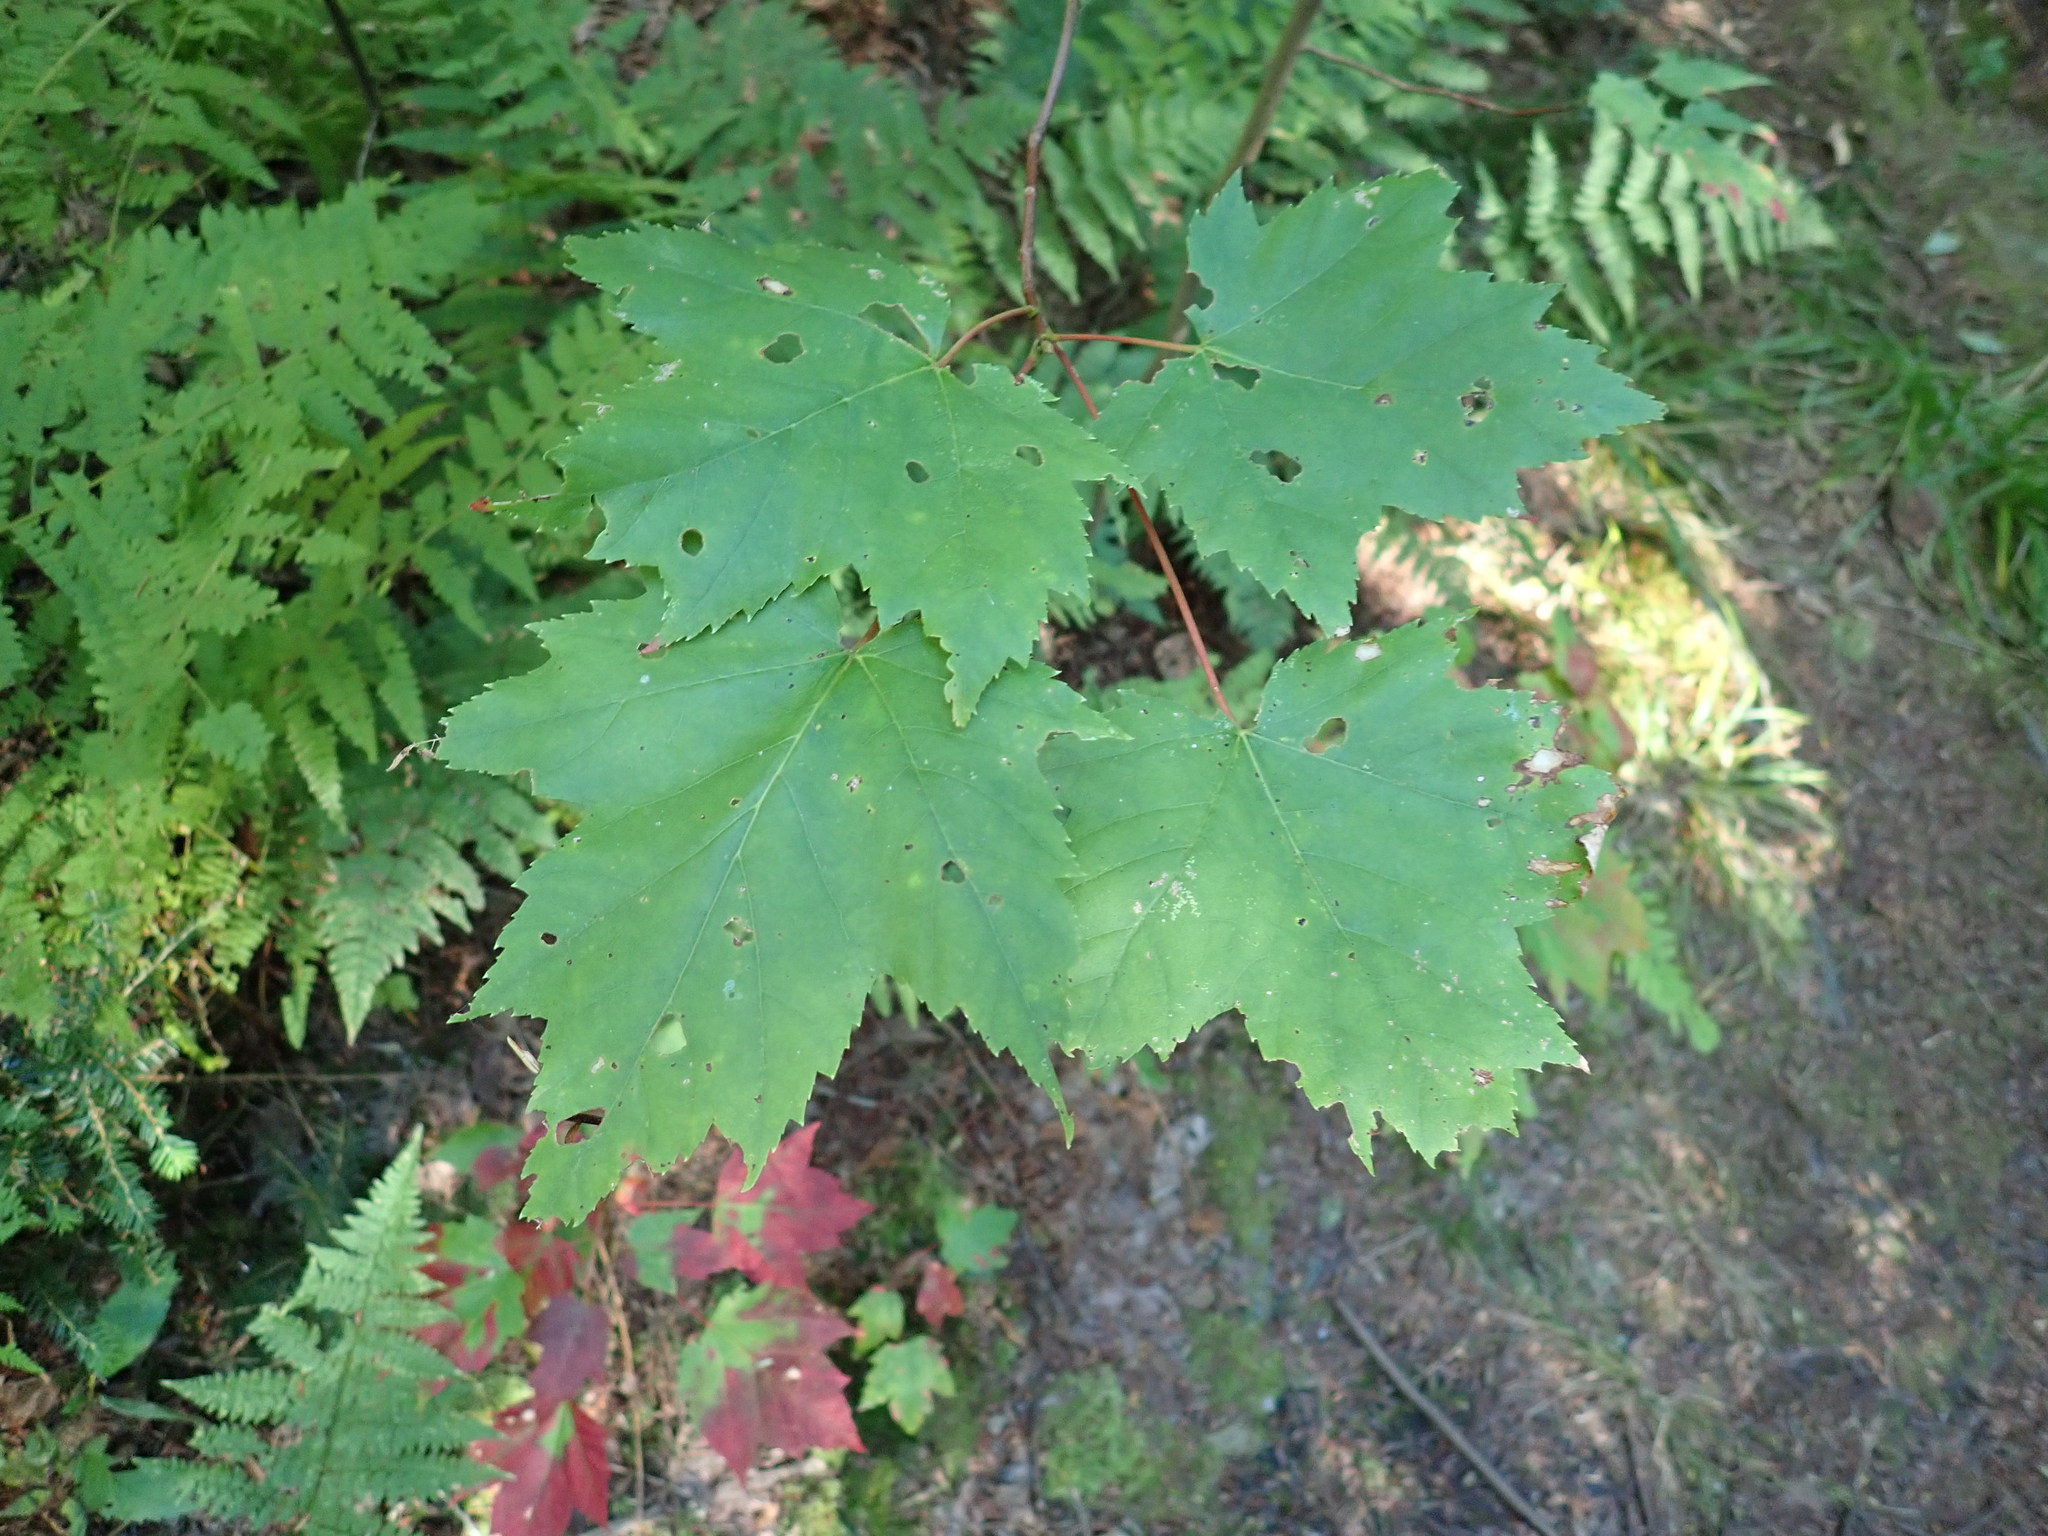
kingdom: Plantae
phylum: Tracheophyta
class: Magnoliopsida
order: Sapindales
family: Sapindaceae
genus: Acer
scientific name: Acer rubrum
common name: Red maple
